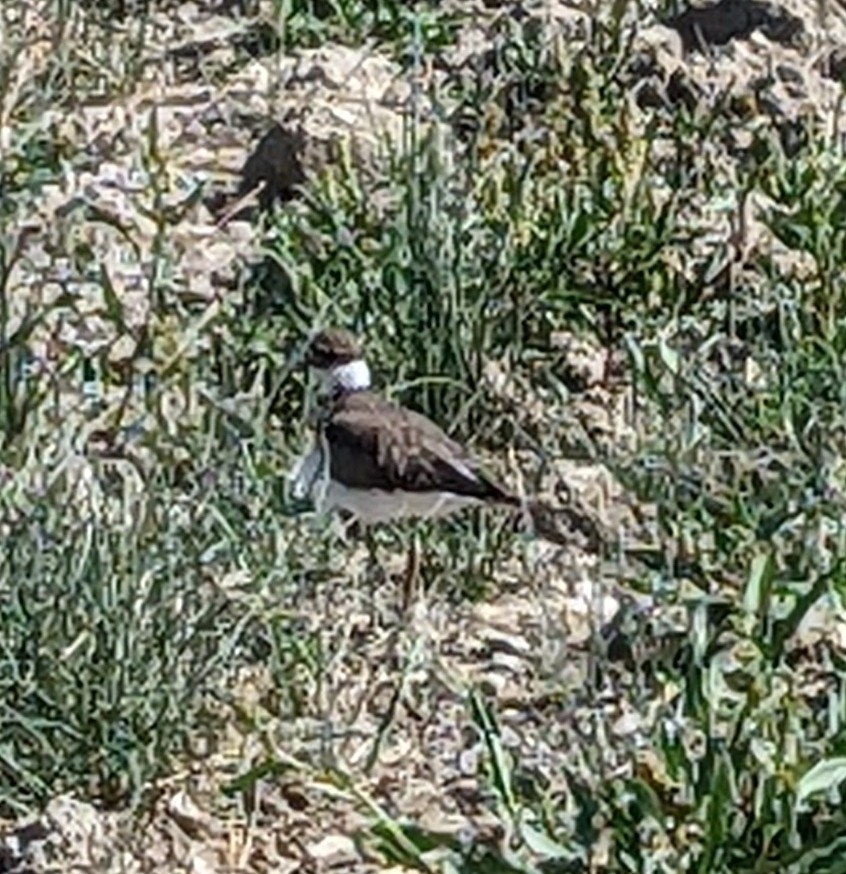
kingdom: Animalia
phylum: Chordata
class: Aves
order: Charadriiformes
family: Charadriidae
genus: Charadrius
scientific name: Charadrius vociferus
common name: Killdeer
